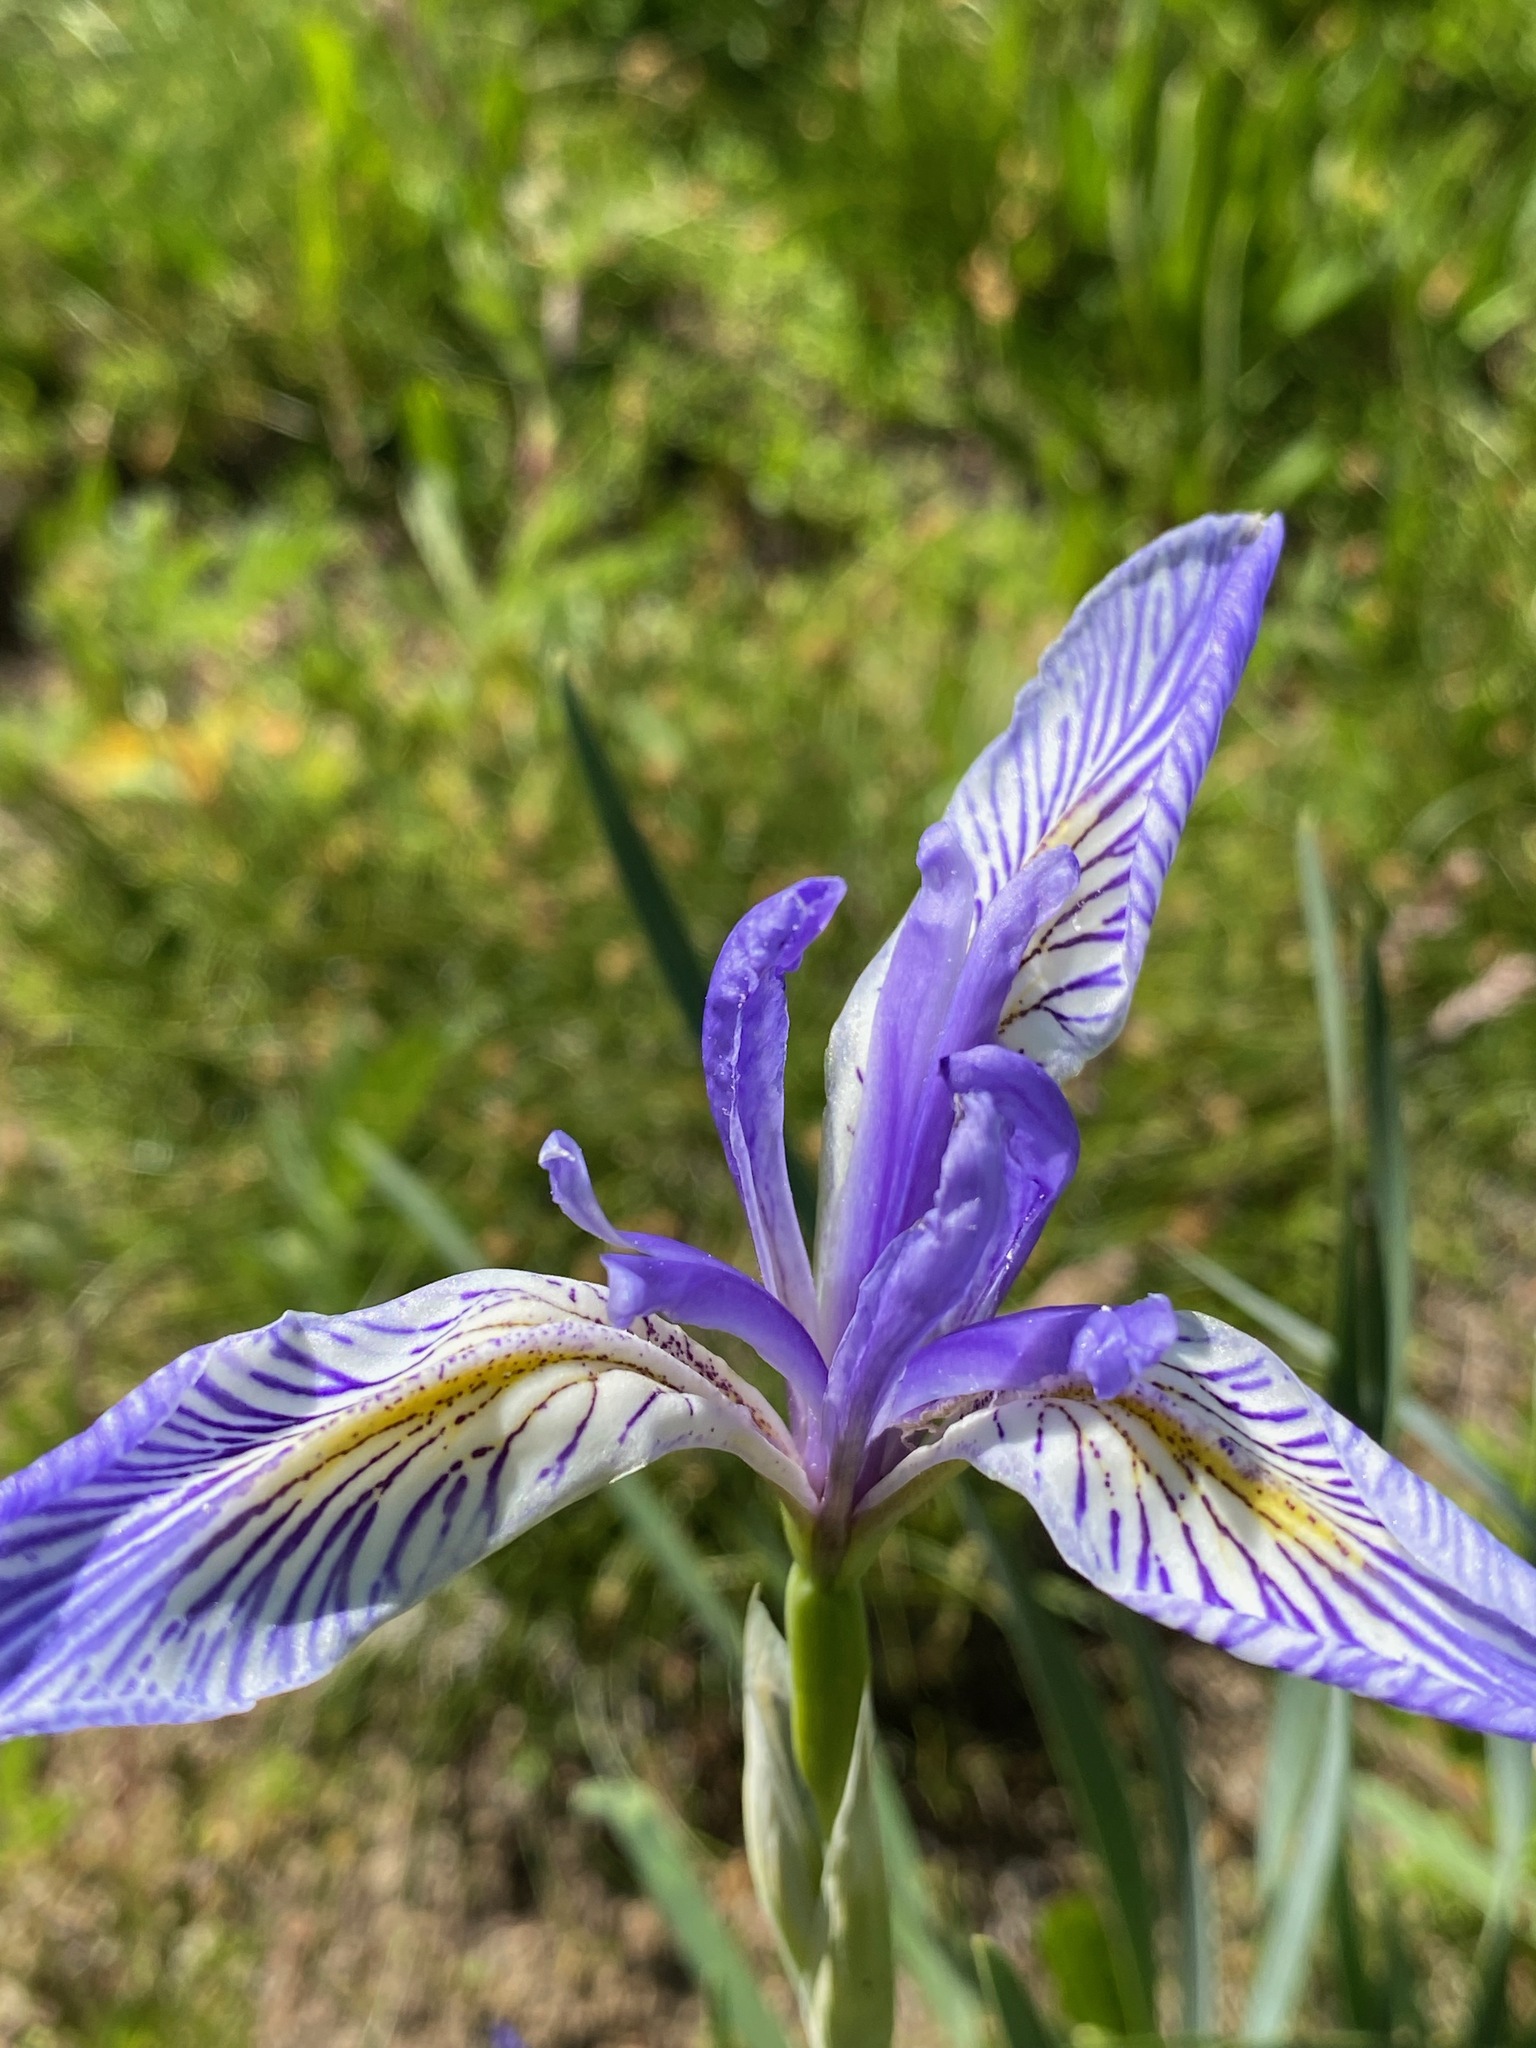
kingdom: Plantae
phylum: Tracheophyta
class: Liliopsida
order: Asparagales
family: Iridaceae
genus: Iris
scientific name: Iris missouriensis
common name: Rocky mountain iris
